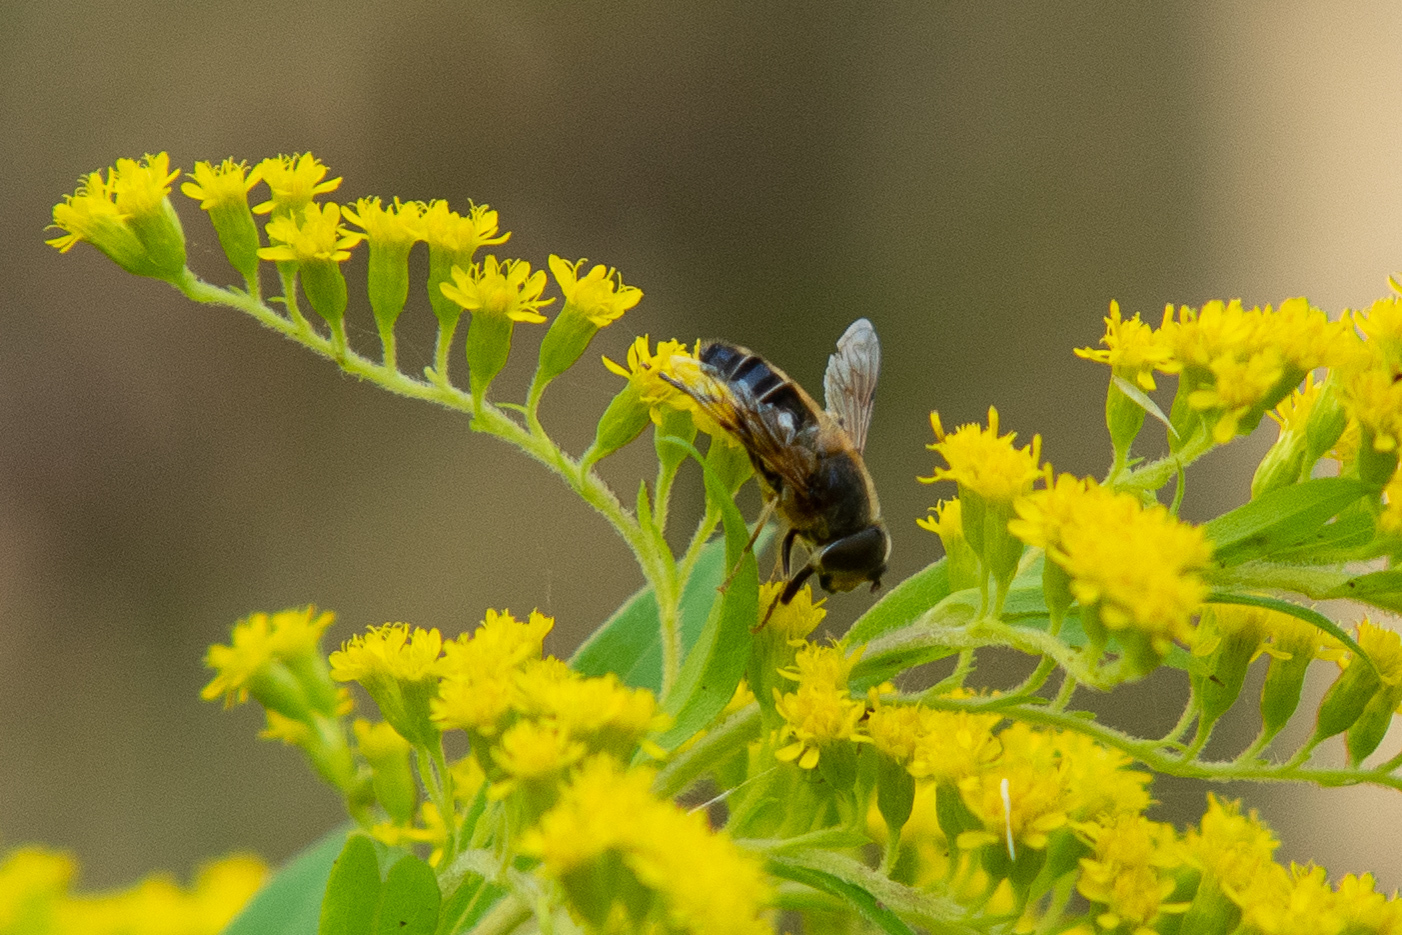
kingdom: Animalia
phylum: Arthropoda
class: Insecta
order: Diptera
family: Syrphidae
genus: Eristalis
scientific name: Eristalis pertinax
